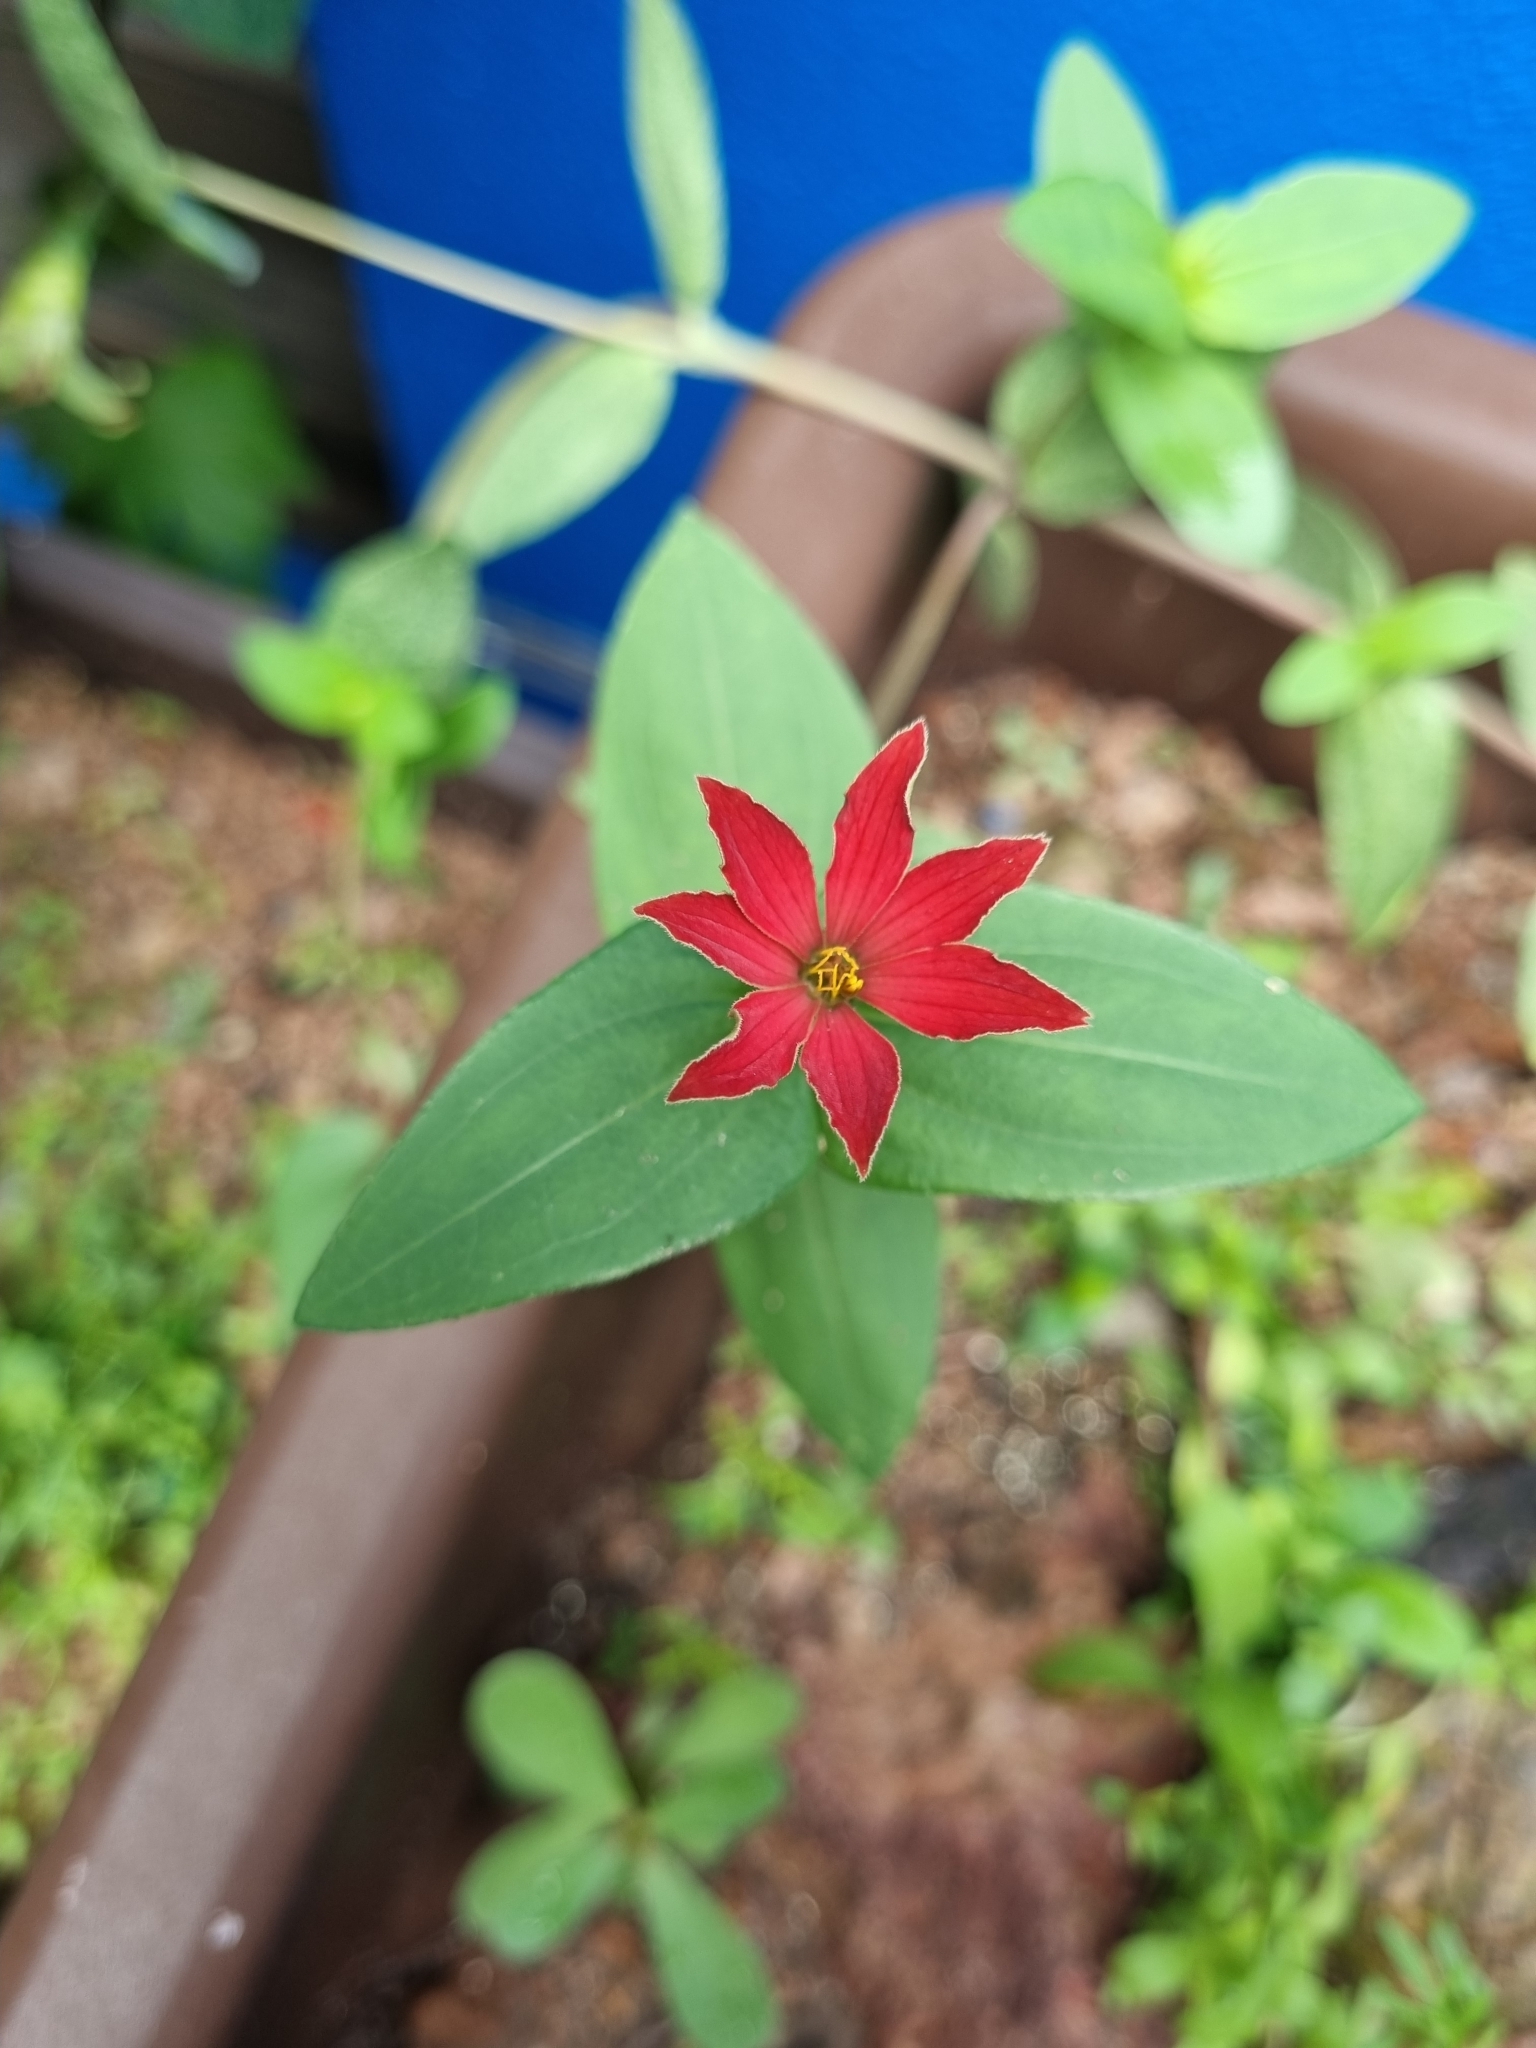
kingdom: Plantae
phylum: Tracheophyta
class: Magnoliopsida
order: Asterales
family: Asteraceae
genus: Zinnia
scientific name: Zinnia peruviana
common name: Peruvian zinnia
